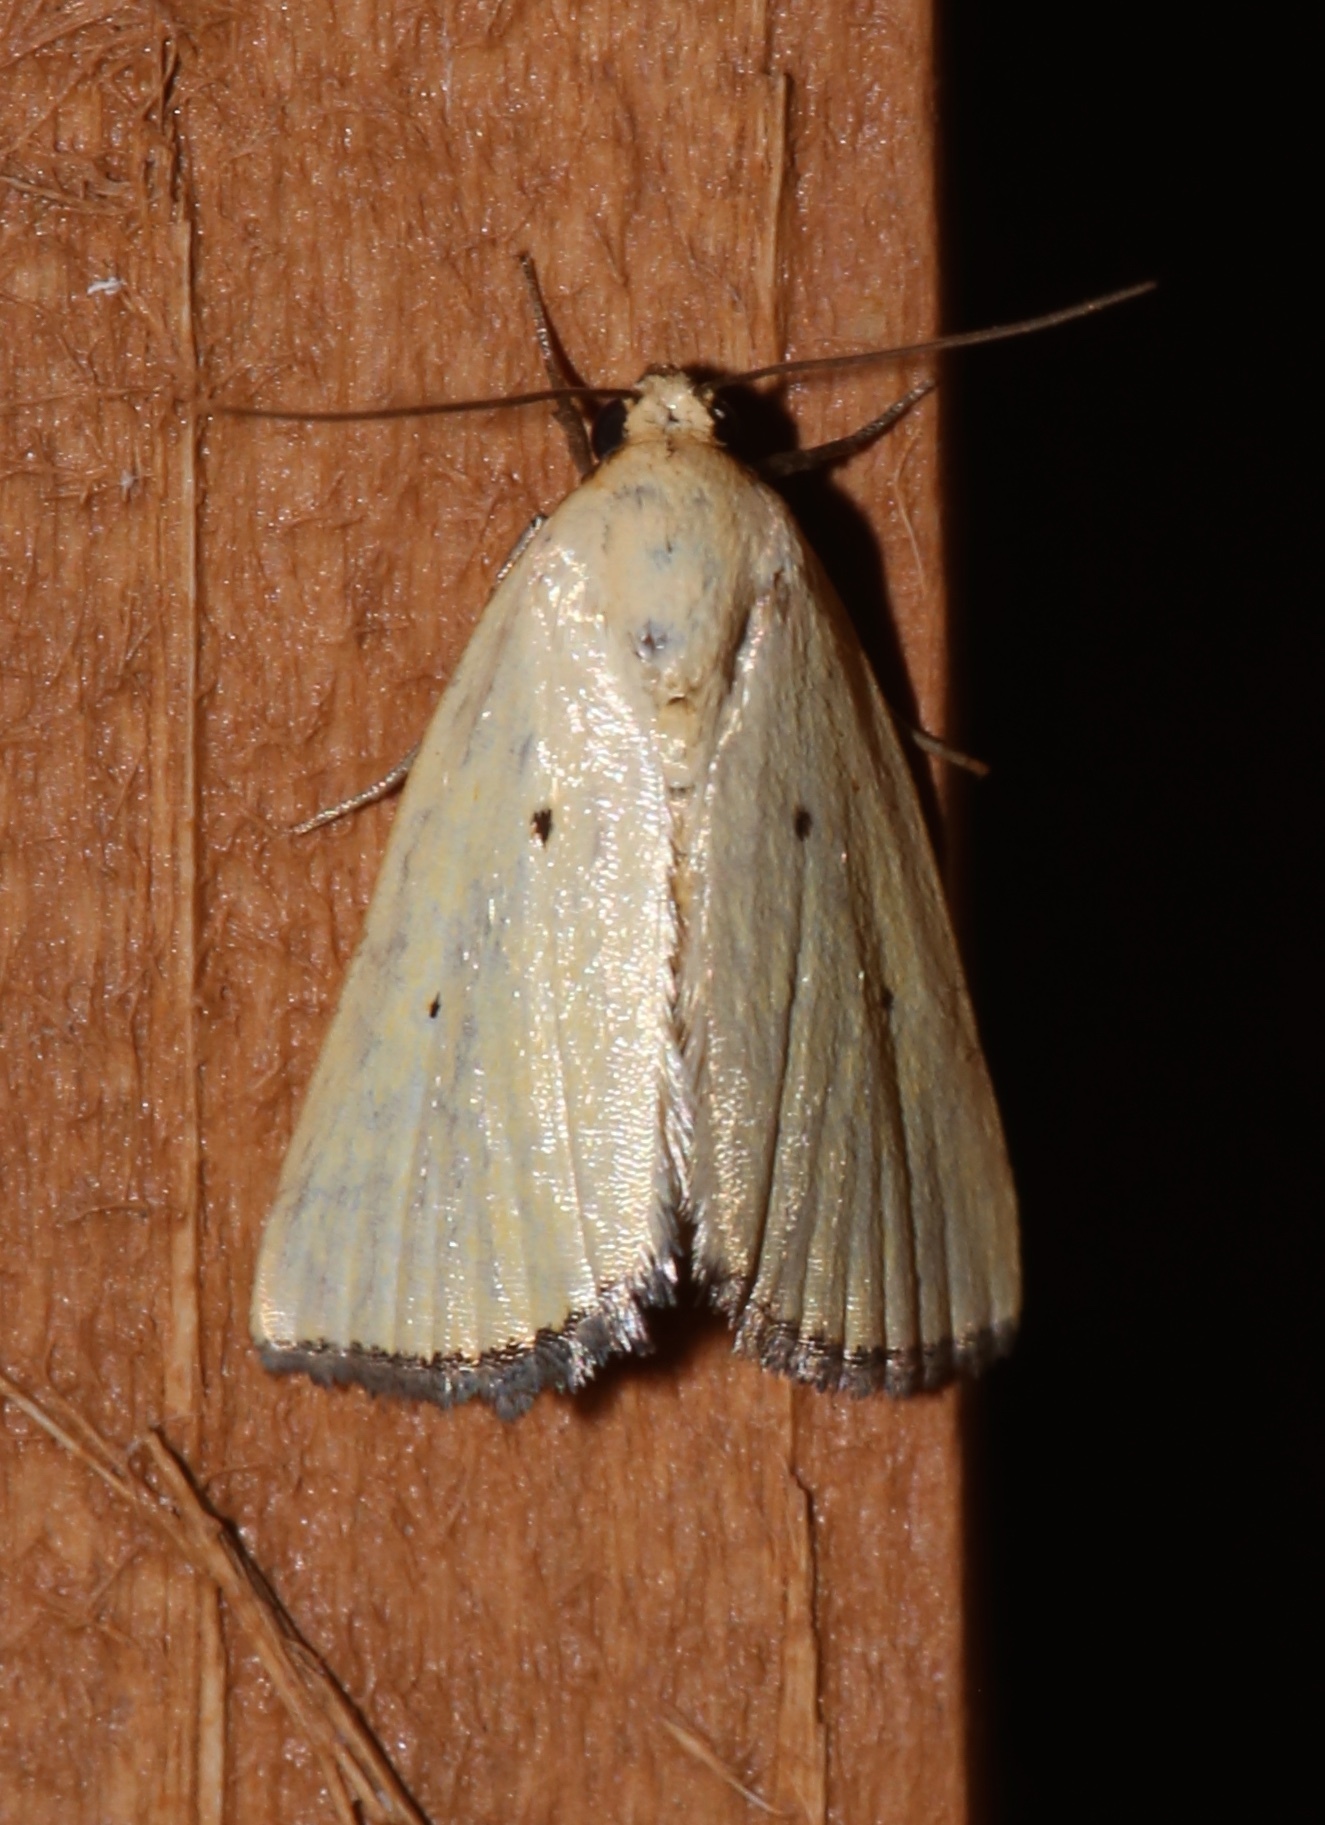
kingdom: Animalia
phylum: Arthropoda
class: Insecta
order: Lepidoptera
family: Noctuidae
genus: Marimatha
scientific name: Marimatha nigrofimbria
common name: Black-bordered lemon moth
